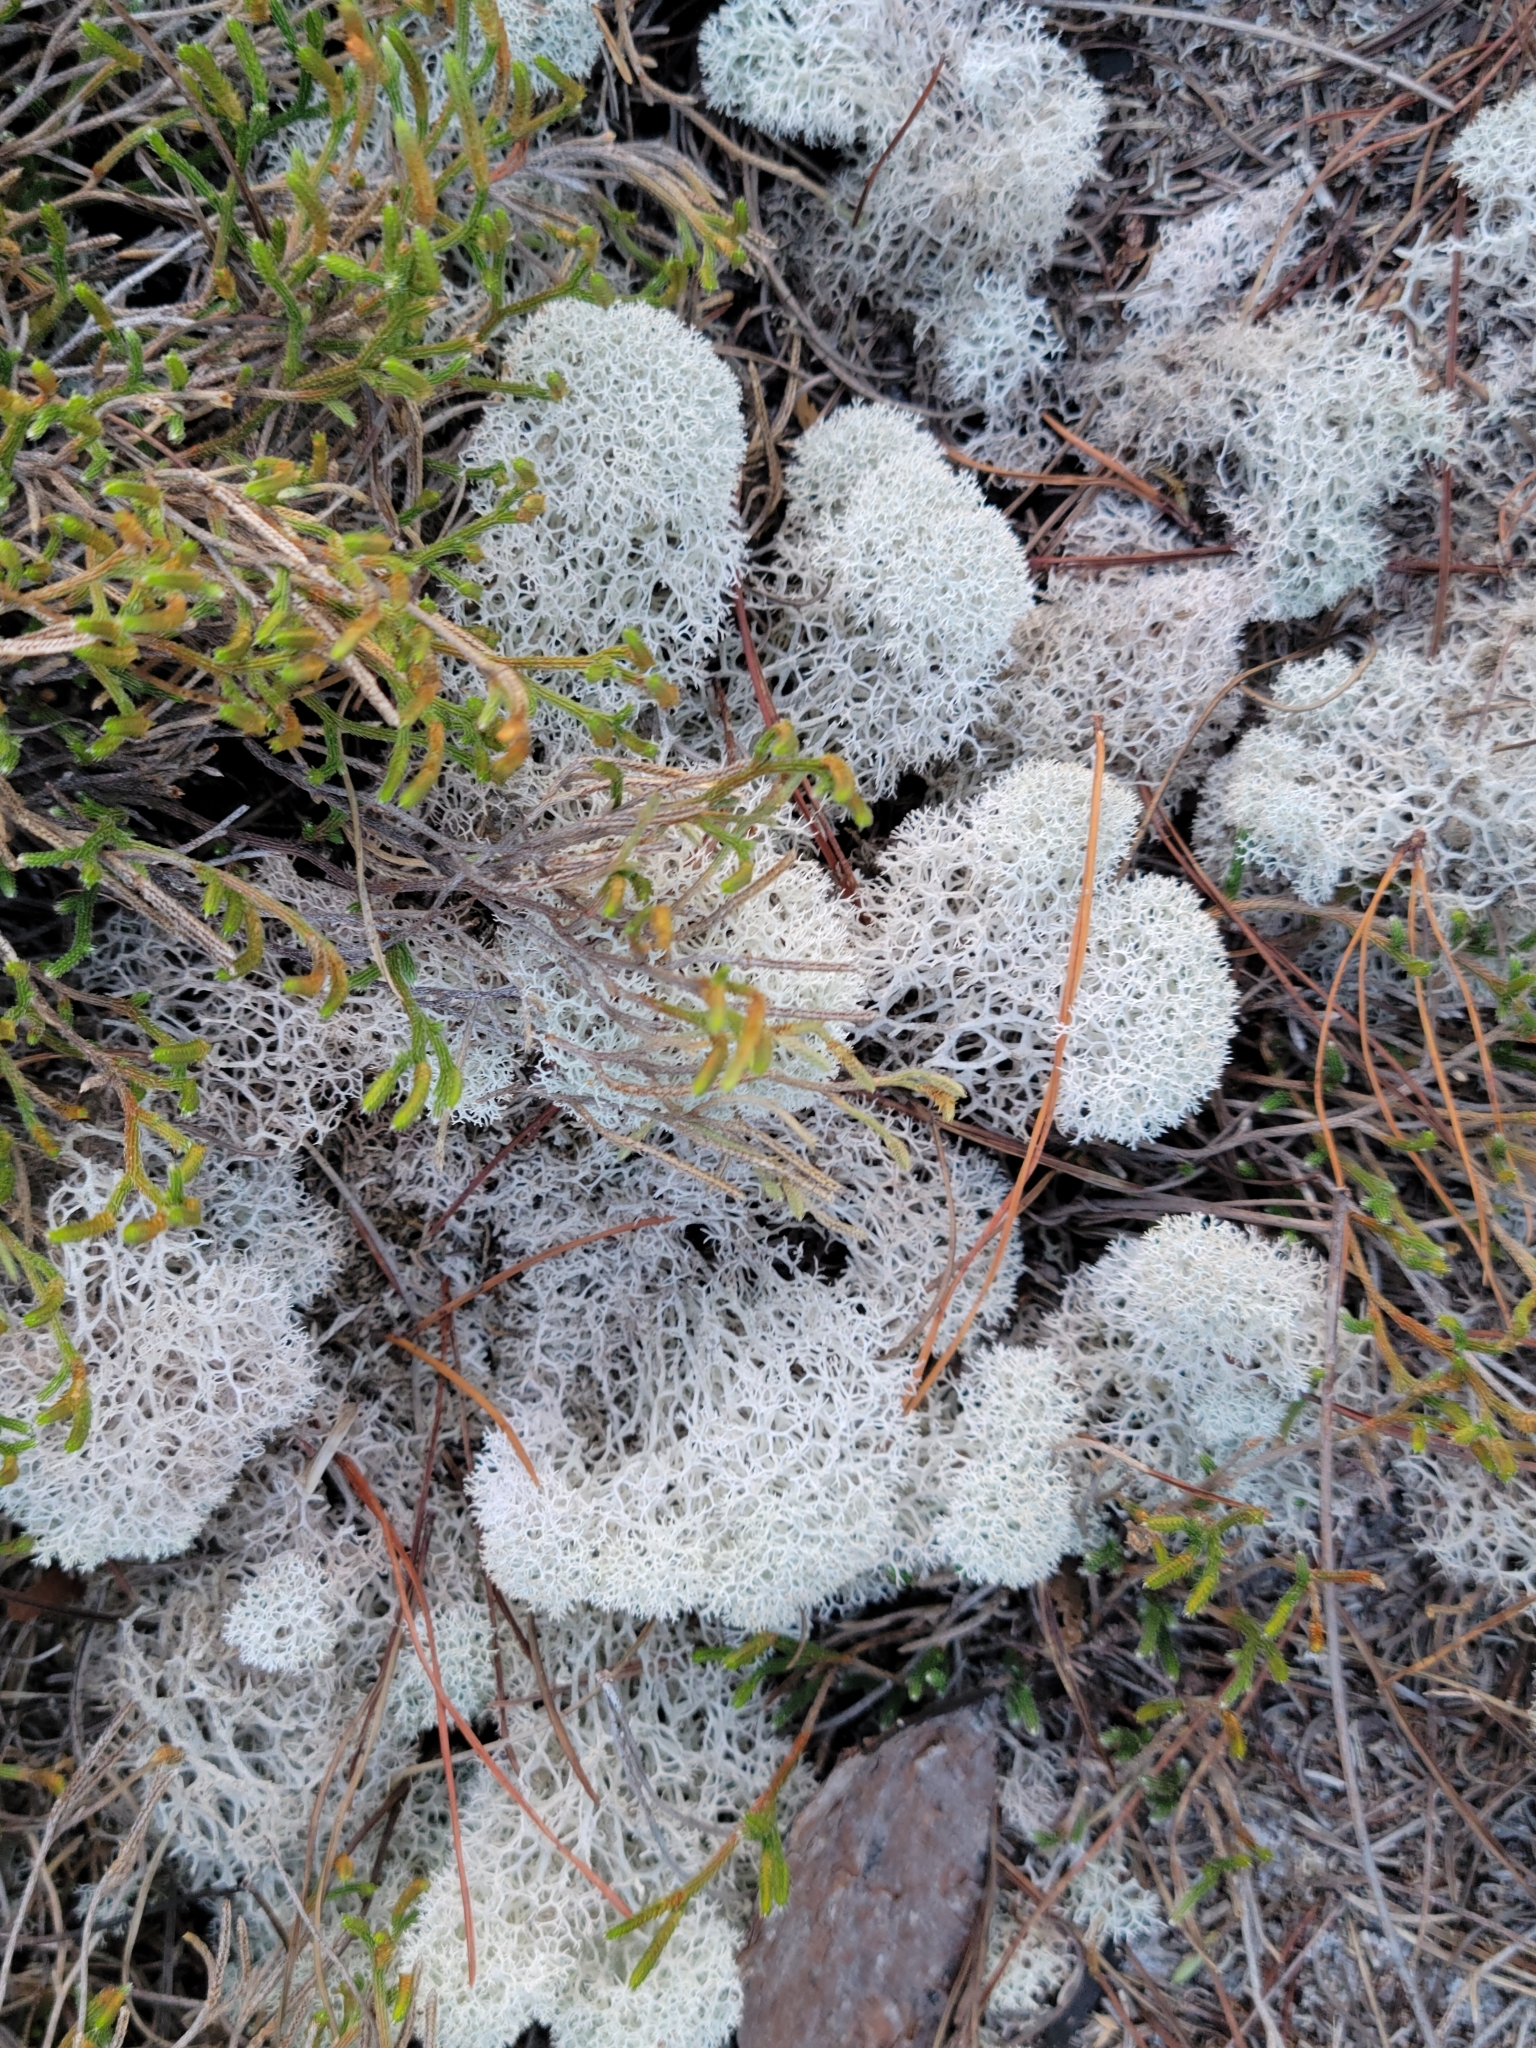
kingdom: Fungi
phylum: Ascomycota
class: Lecanoromycetes
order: Lecanorales
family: Cladoniaceae
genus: Cladonia
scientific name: Cladonia evansii
